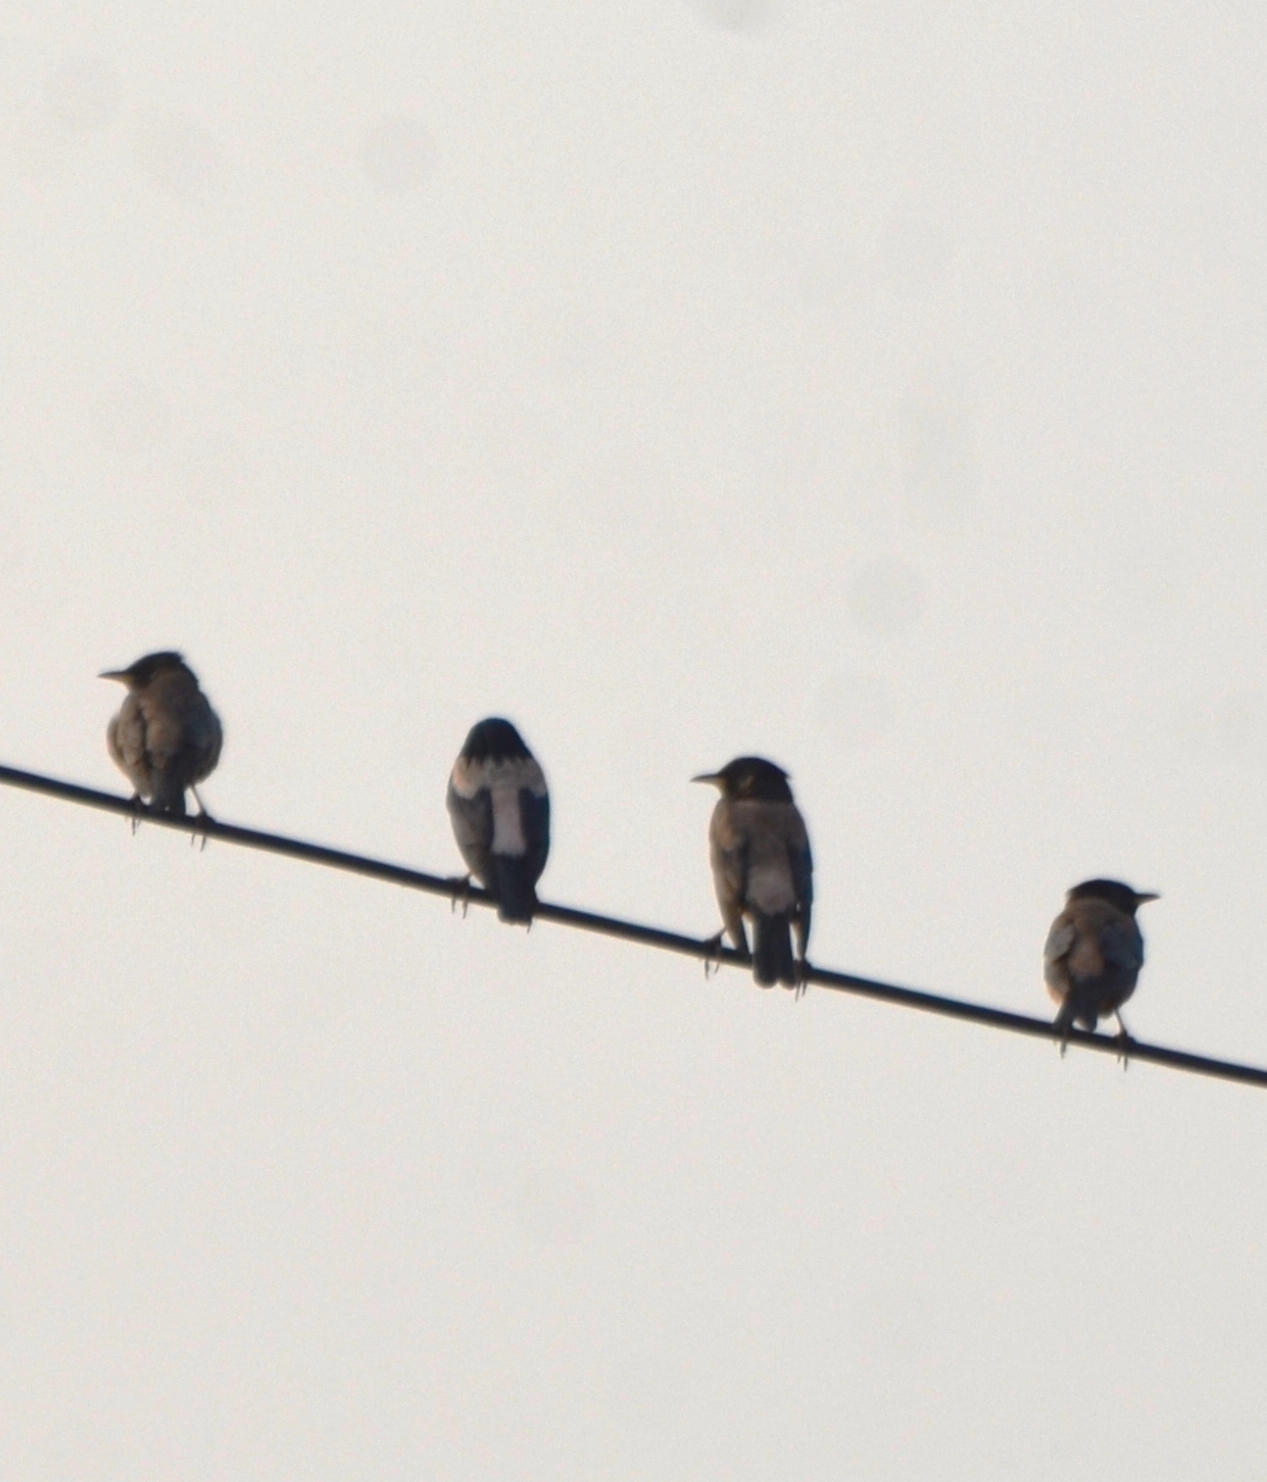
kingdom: Animalia
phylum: Chordata
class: Aves
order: Passeriformes
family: Sturnidae
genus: Pastor
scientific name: Pastor roseus
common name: Rosy starling
